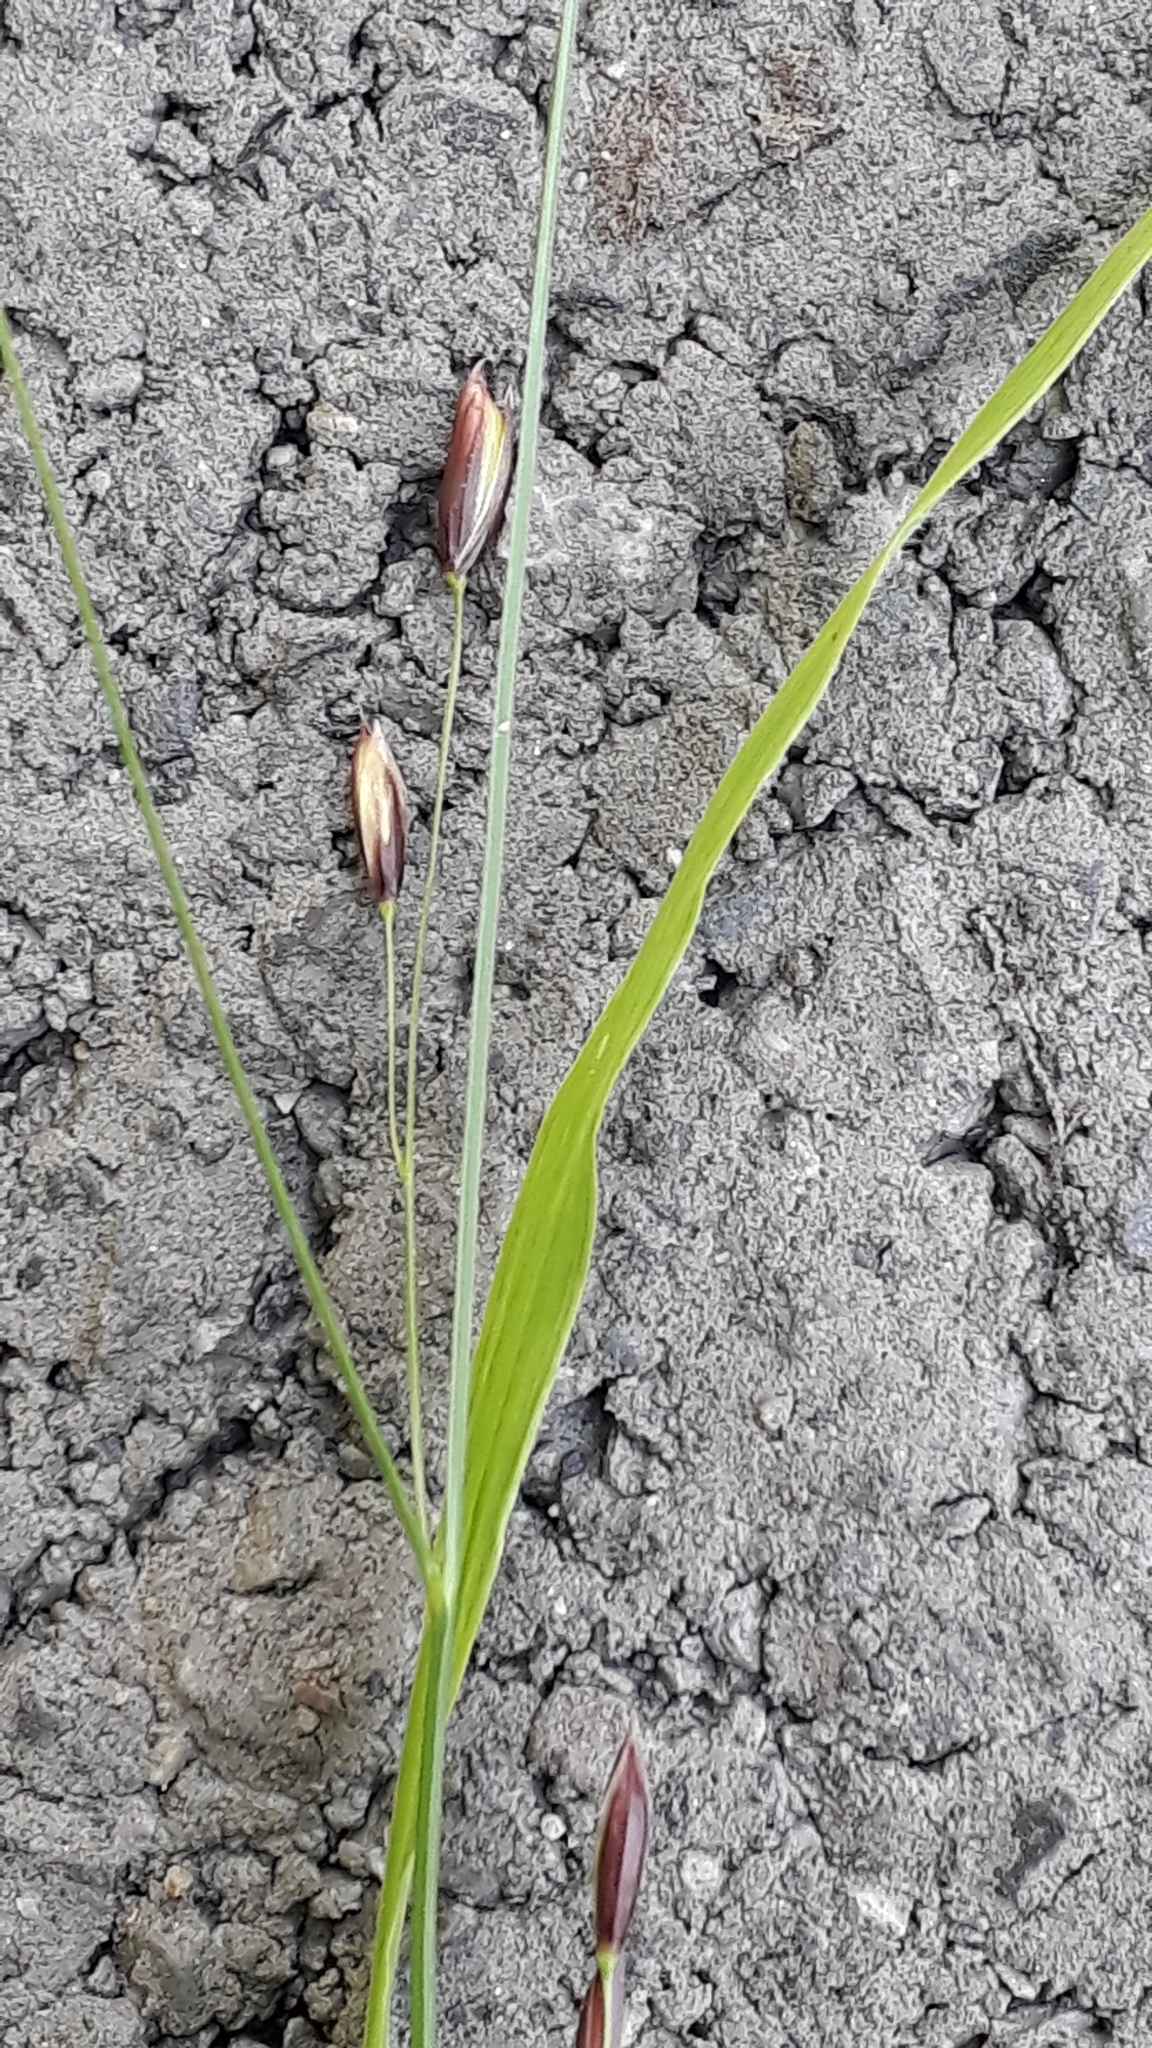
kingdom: Plantae
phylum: Tracheophyta
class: Liliopsida
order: Poales
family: Poaceae
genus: Melica
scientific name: Melica uniflora
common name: Wood melick
